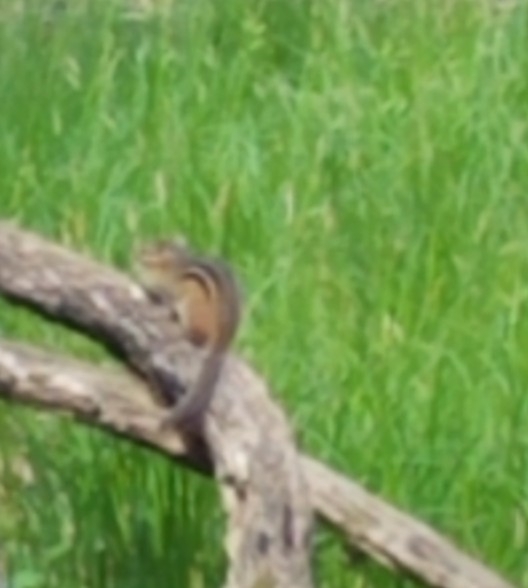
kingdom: Animalia
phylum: Chordata
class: Mammalia
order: Rodentia
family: Sciuridae
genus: Tamias
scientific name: Tamias striatus
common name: Eastern chipmunk
